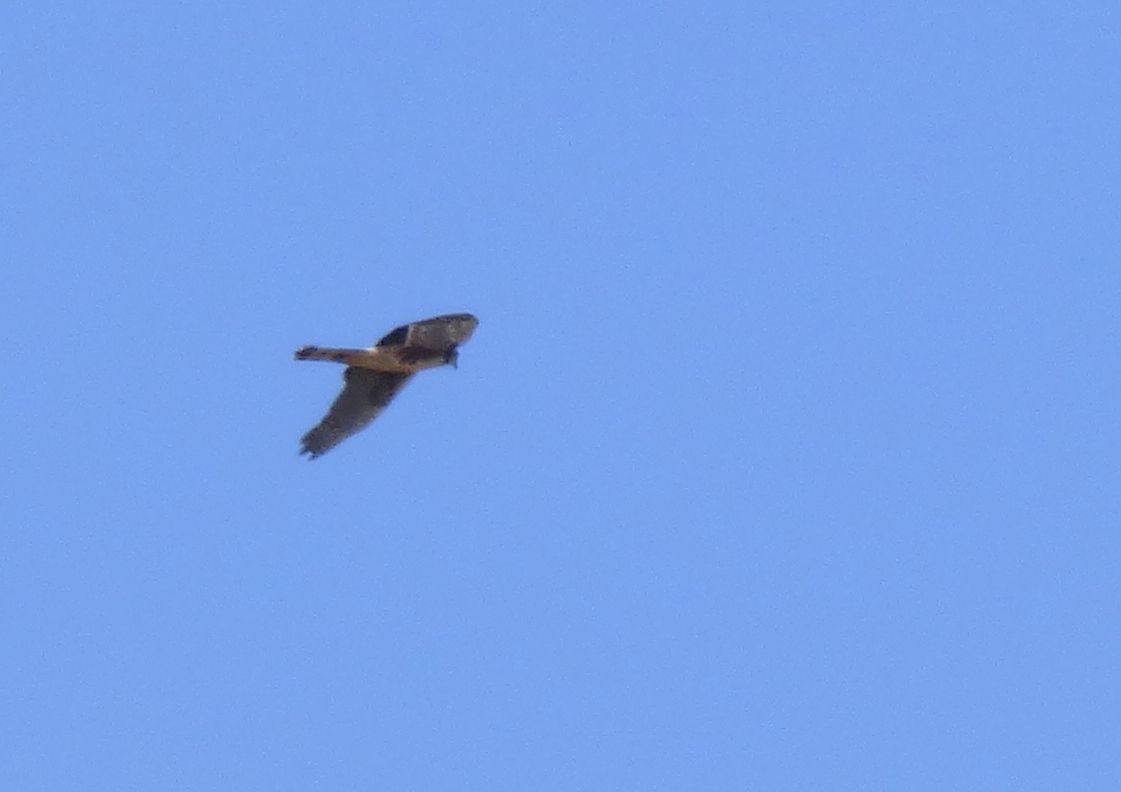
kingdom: Animalia
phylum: Chordata
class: Aves
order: Accipitriformes
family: Accipitridae
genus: Circus
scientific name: Circus buffoni
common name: Long-winged harrier
